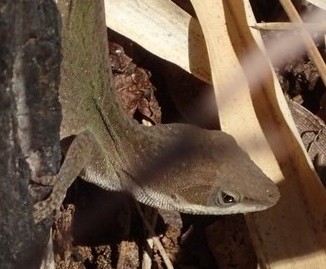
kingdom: Animalia
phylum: Chordata
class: Squamata
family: Dactyloidae
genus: Anolis
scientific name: Anolis carolinensis
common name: Green anole
